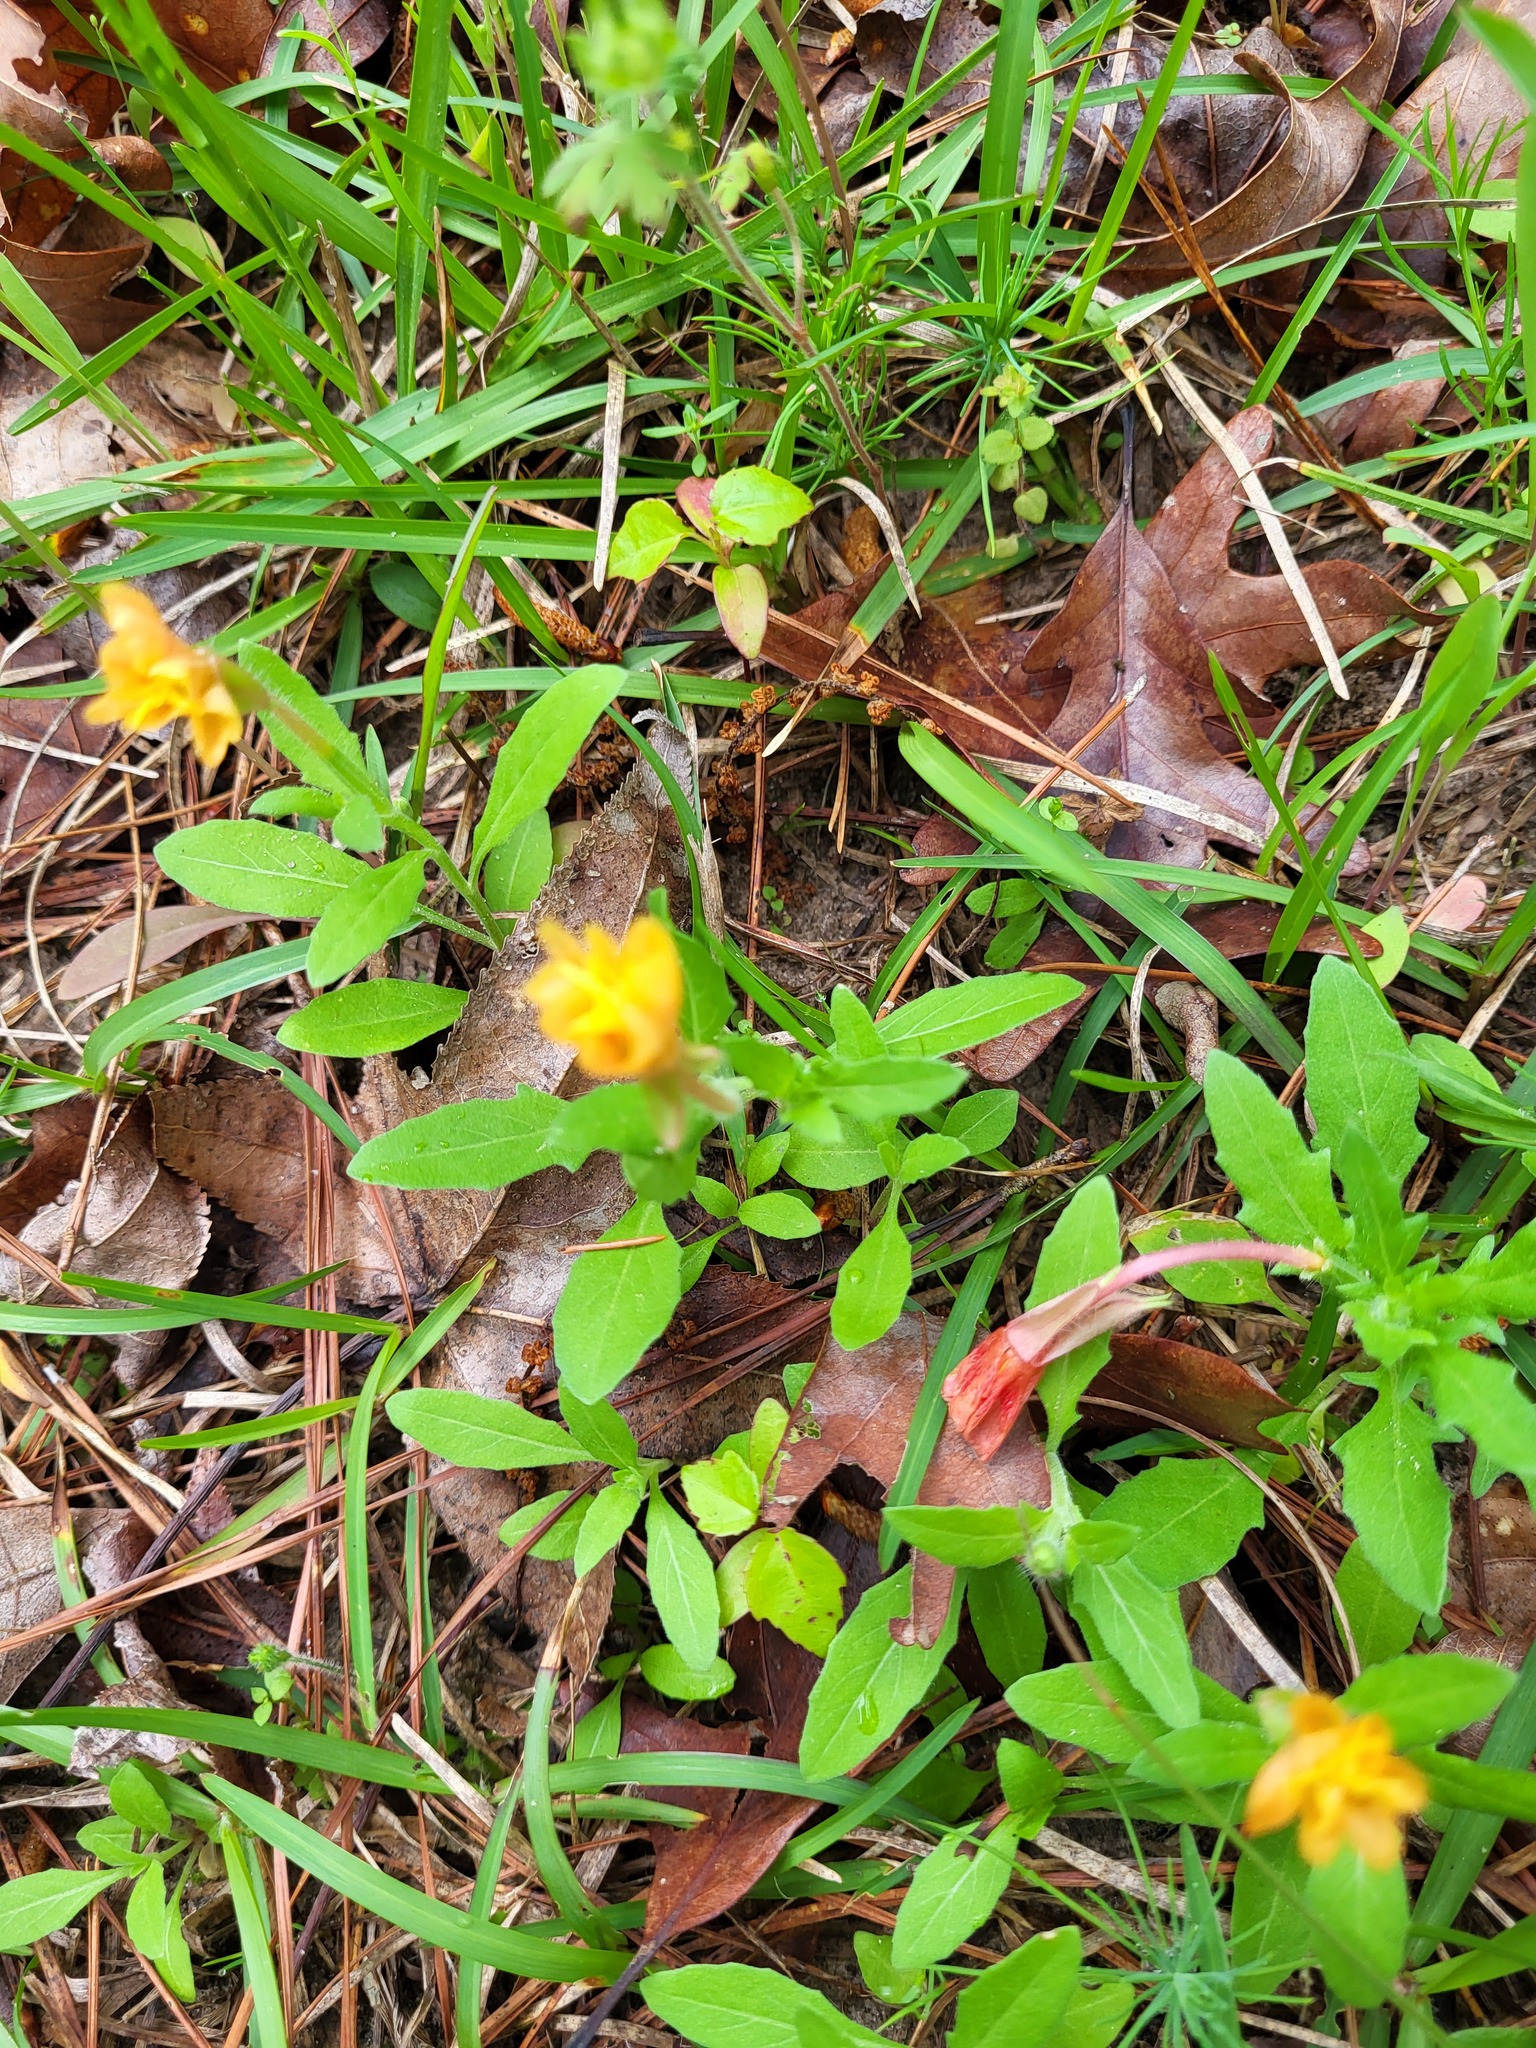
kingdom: Plantae
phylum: Tracheophyta
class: Magnoliopsida
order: Myrtales
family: Onagraceae
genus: Oenothera
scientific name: Oenothera laciniata
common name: Cut-leaved evening-primrose
